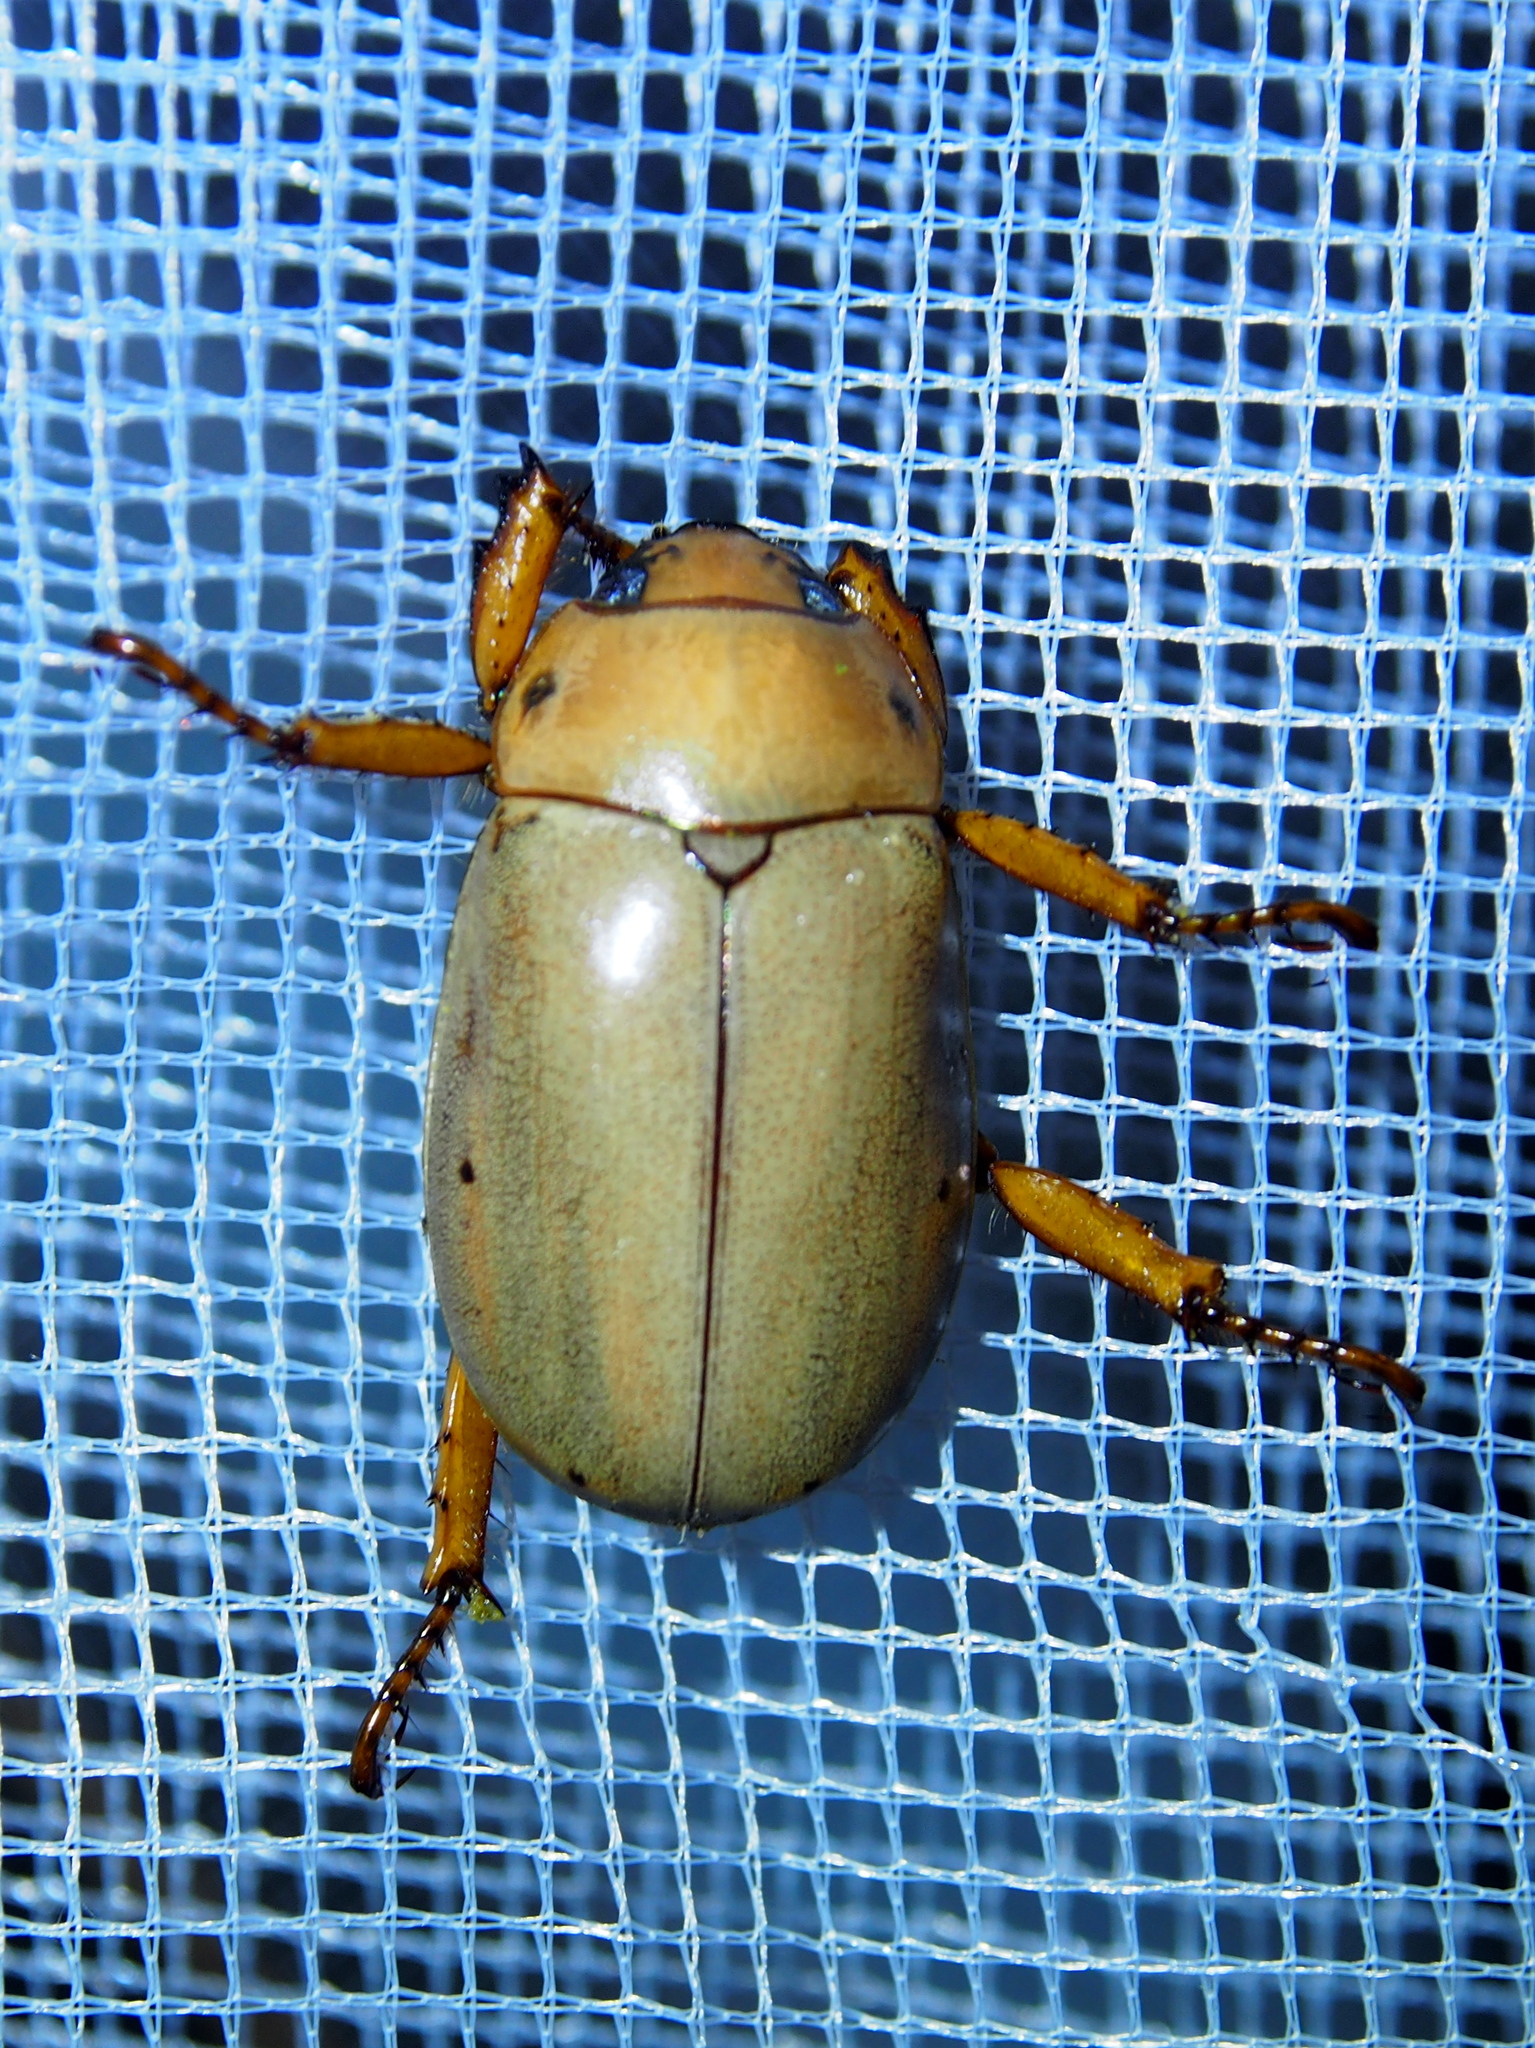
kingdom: Animalia
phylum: Arthropoda
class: Insecta
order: Coleoptera
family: Scarabaeidae
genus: Pelidnota
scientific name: Pelidnota notata
